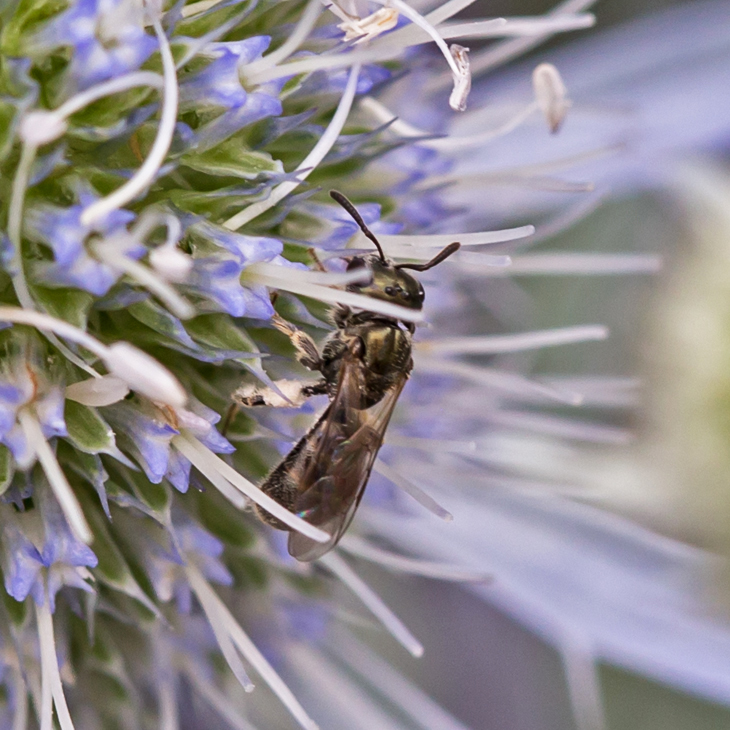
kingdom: Animalia
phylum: Arthropoda
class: Insecta
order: Hymenoptera
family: Halictidae
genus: Dialictus
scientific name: Dialictus
